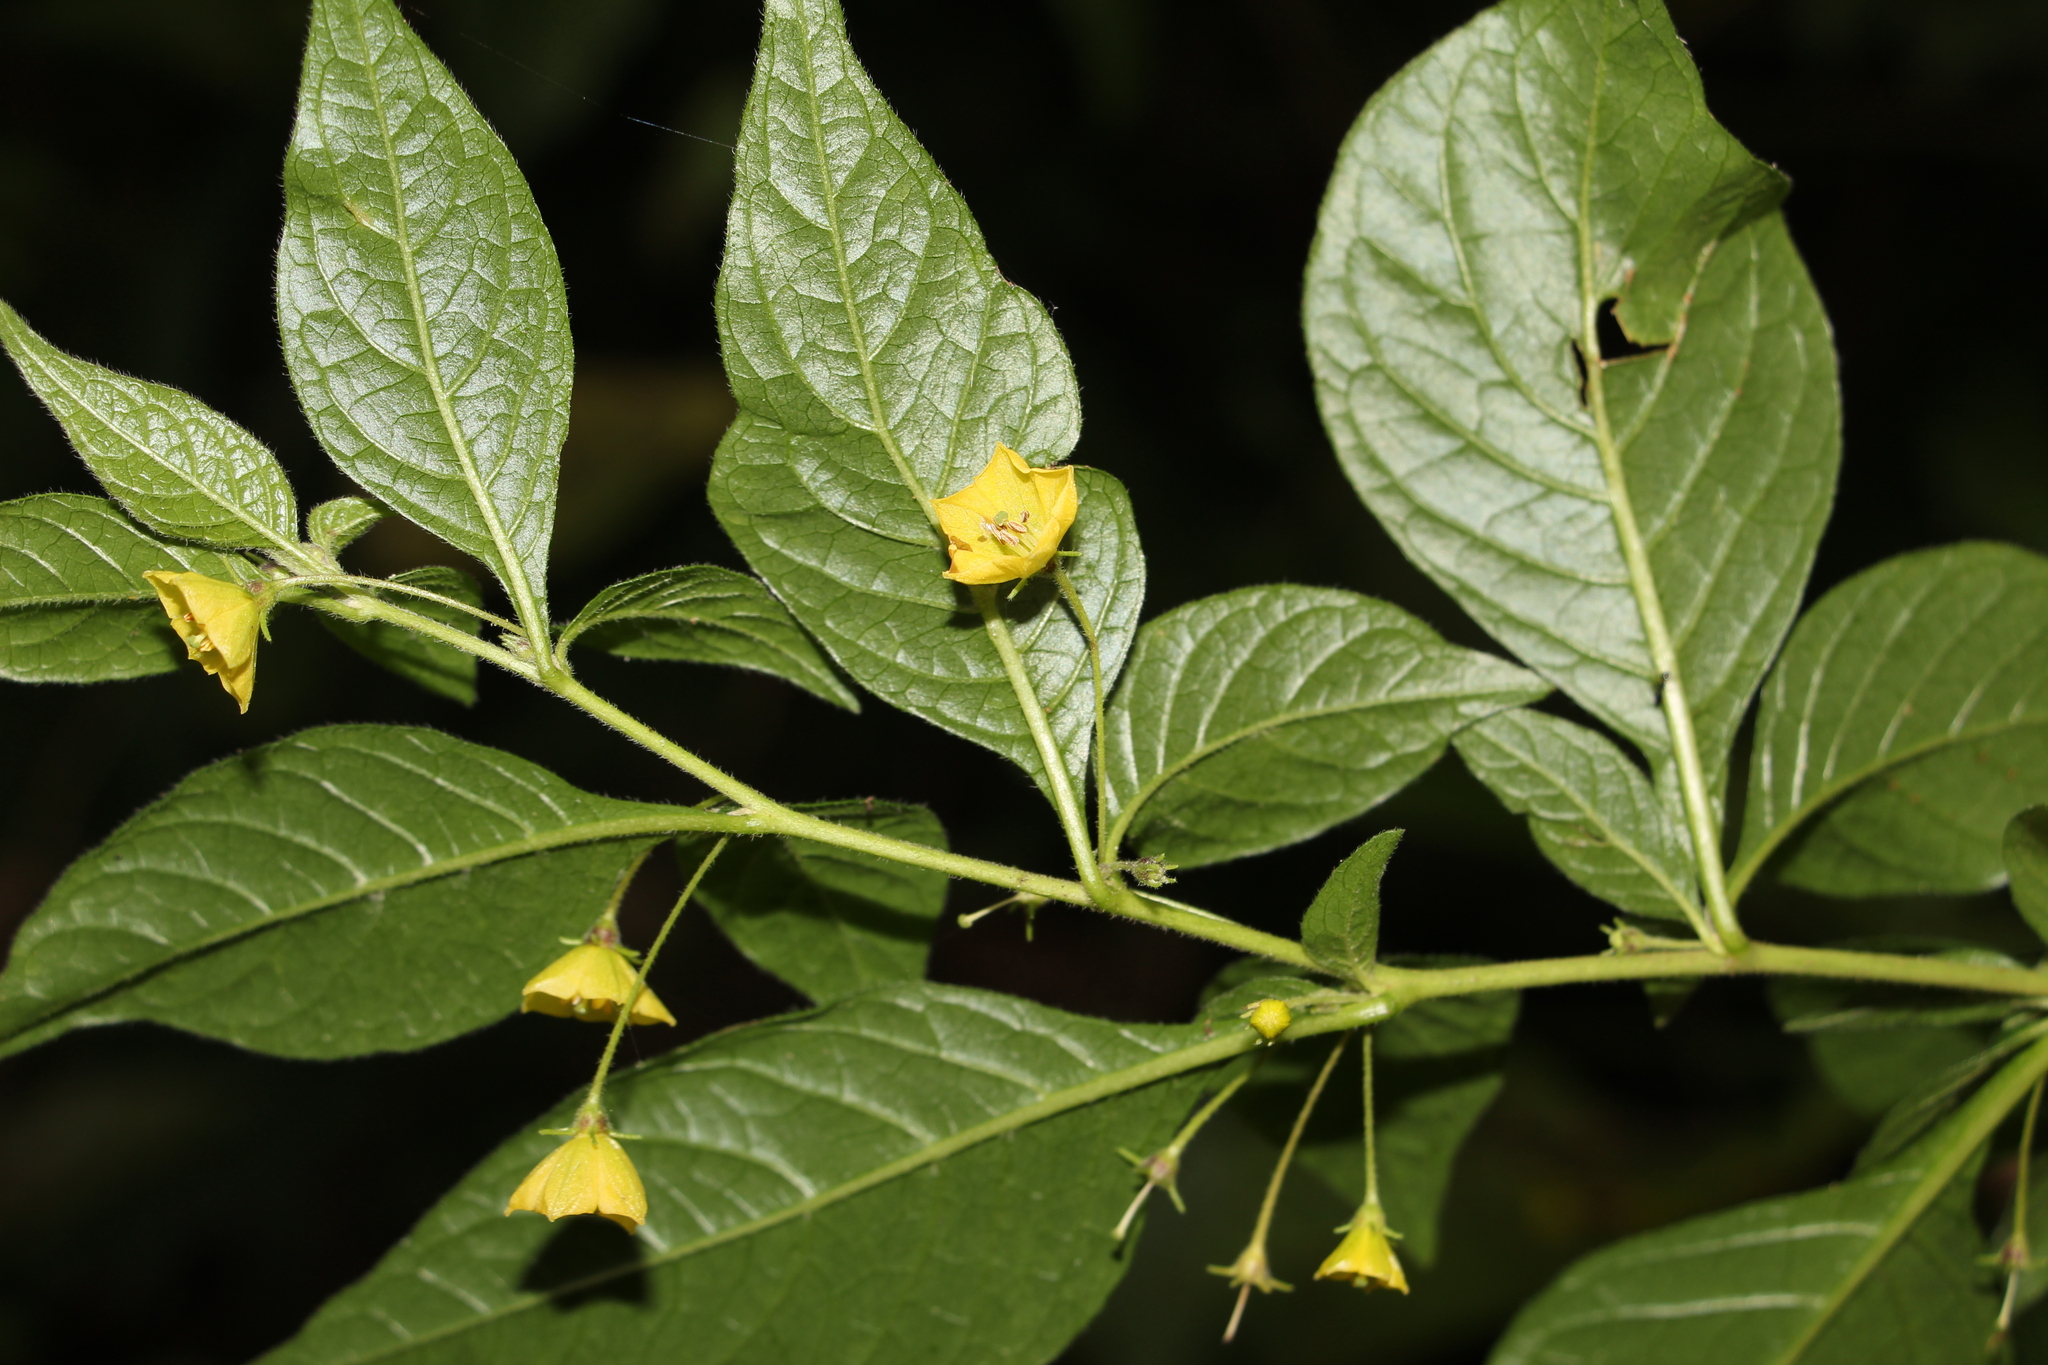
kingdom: Plantae
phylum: Tracheophyta
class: Magnoliopsida
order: Solanales
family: Solanaceae
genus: Capsicum
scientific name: Capsicum rhomboideum
